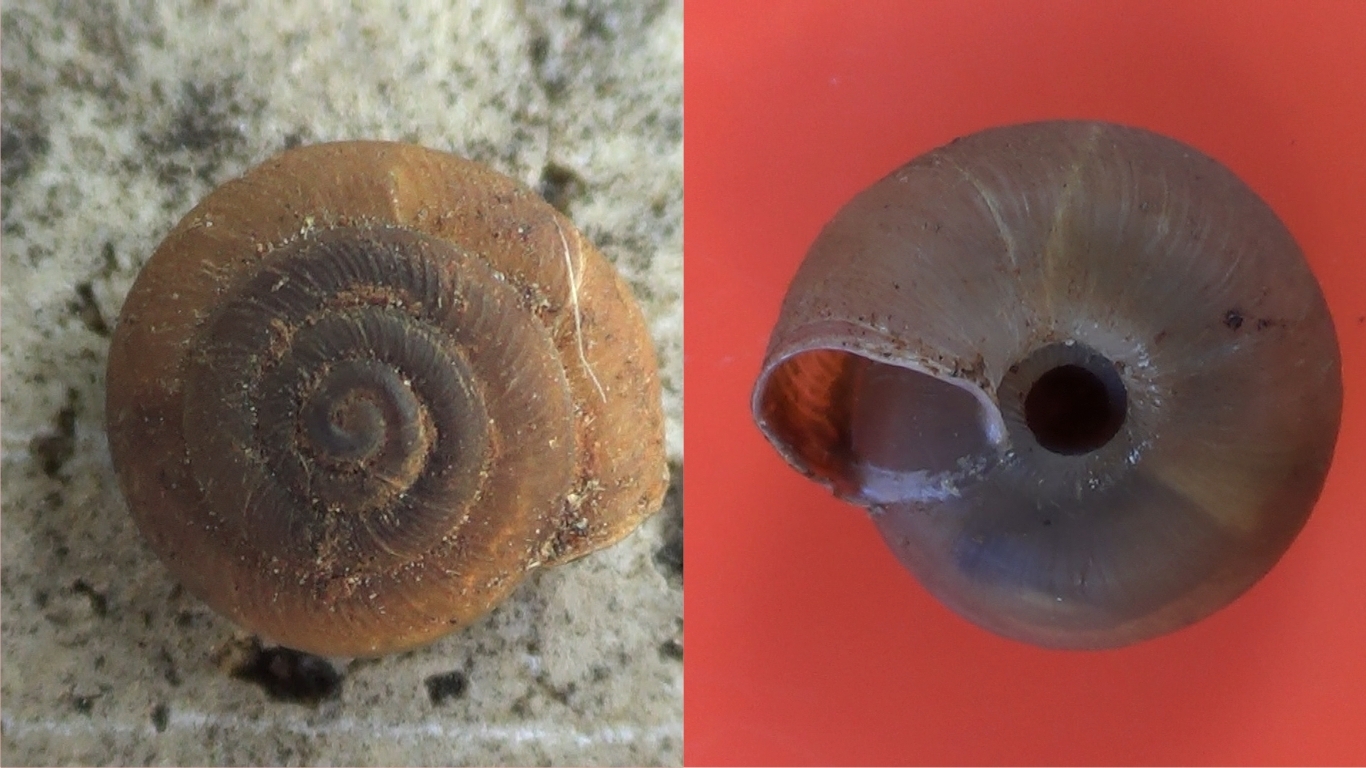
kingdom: Animalia
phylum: Mollusca
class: Gastropoda
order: Stylommatophora
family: Trissexodontidae
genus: Caracollina
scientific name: Caracollina lenticula
